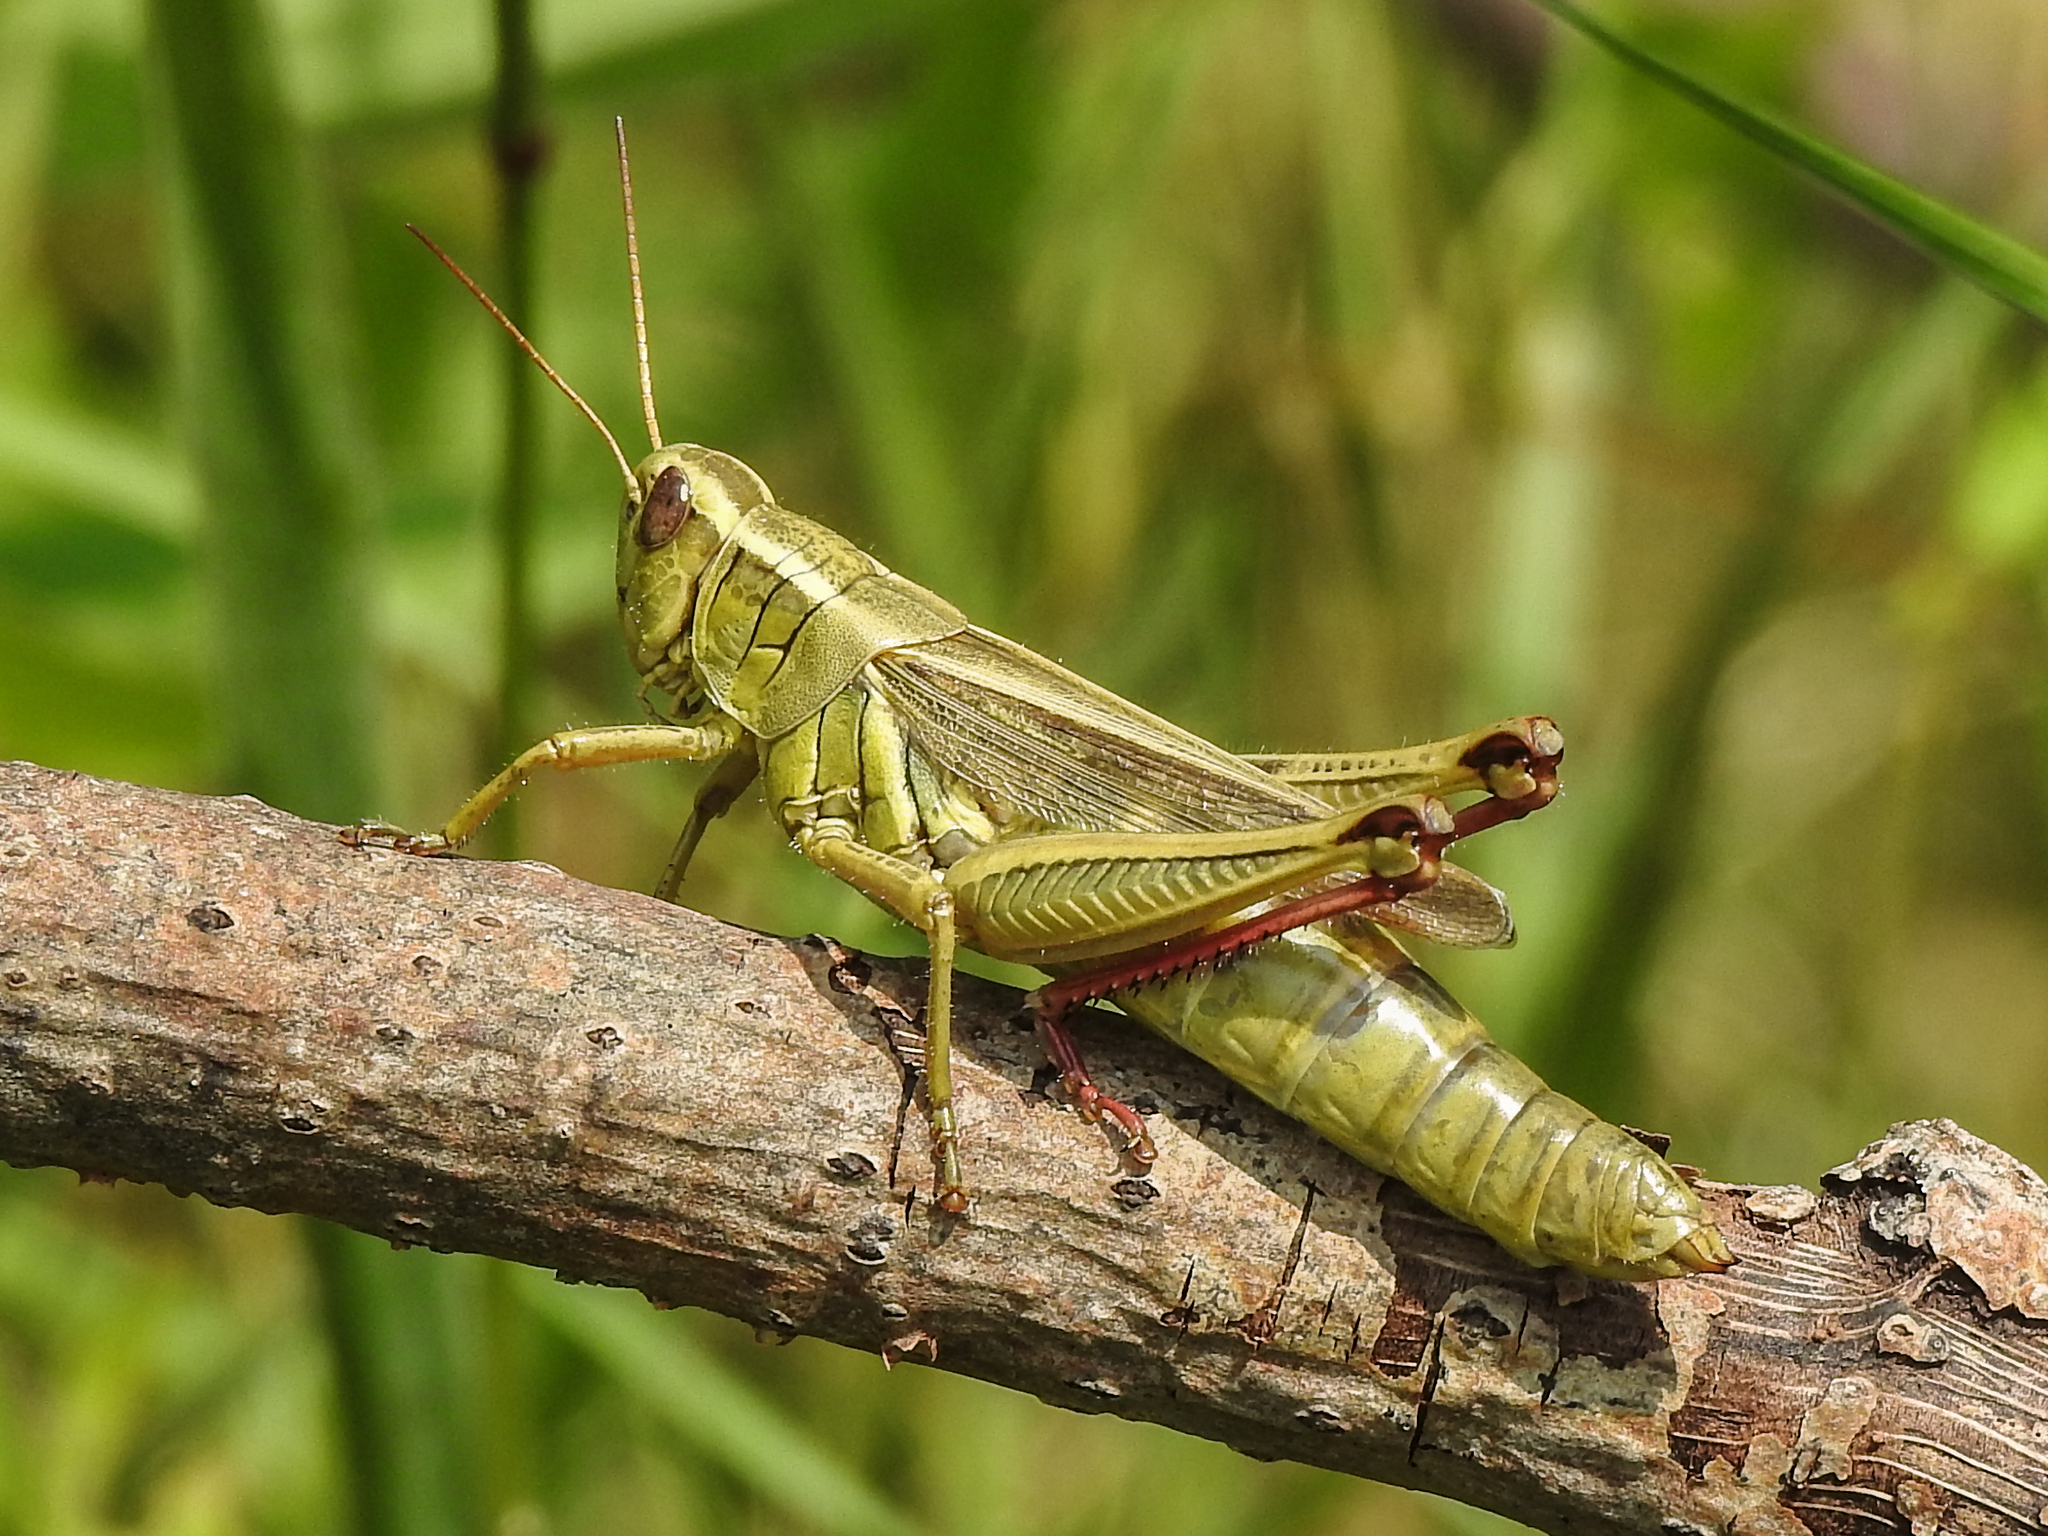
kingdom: Animalia
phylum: Arthropoda
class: Insecta
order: Orthoptera
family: Acrididae
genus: Melanoplus
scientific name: Melanoplus bivittatus
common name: Two-striped grasshopper
